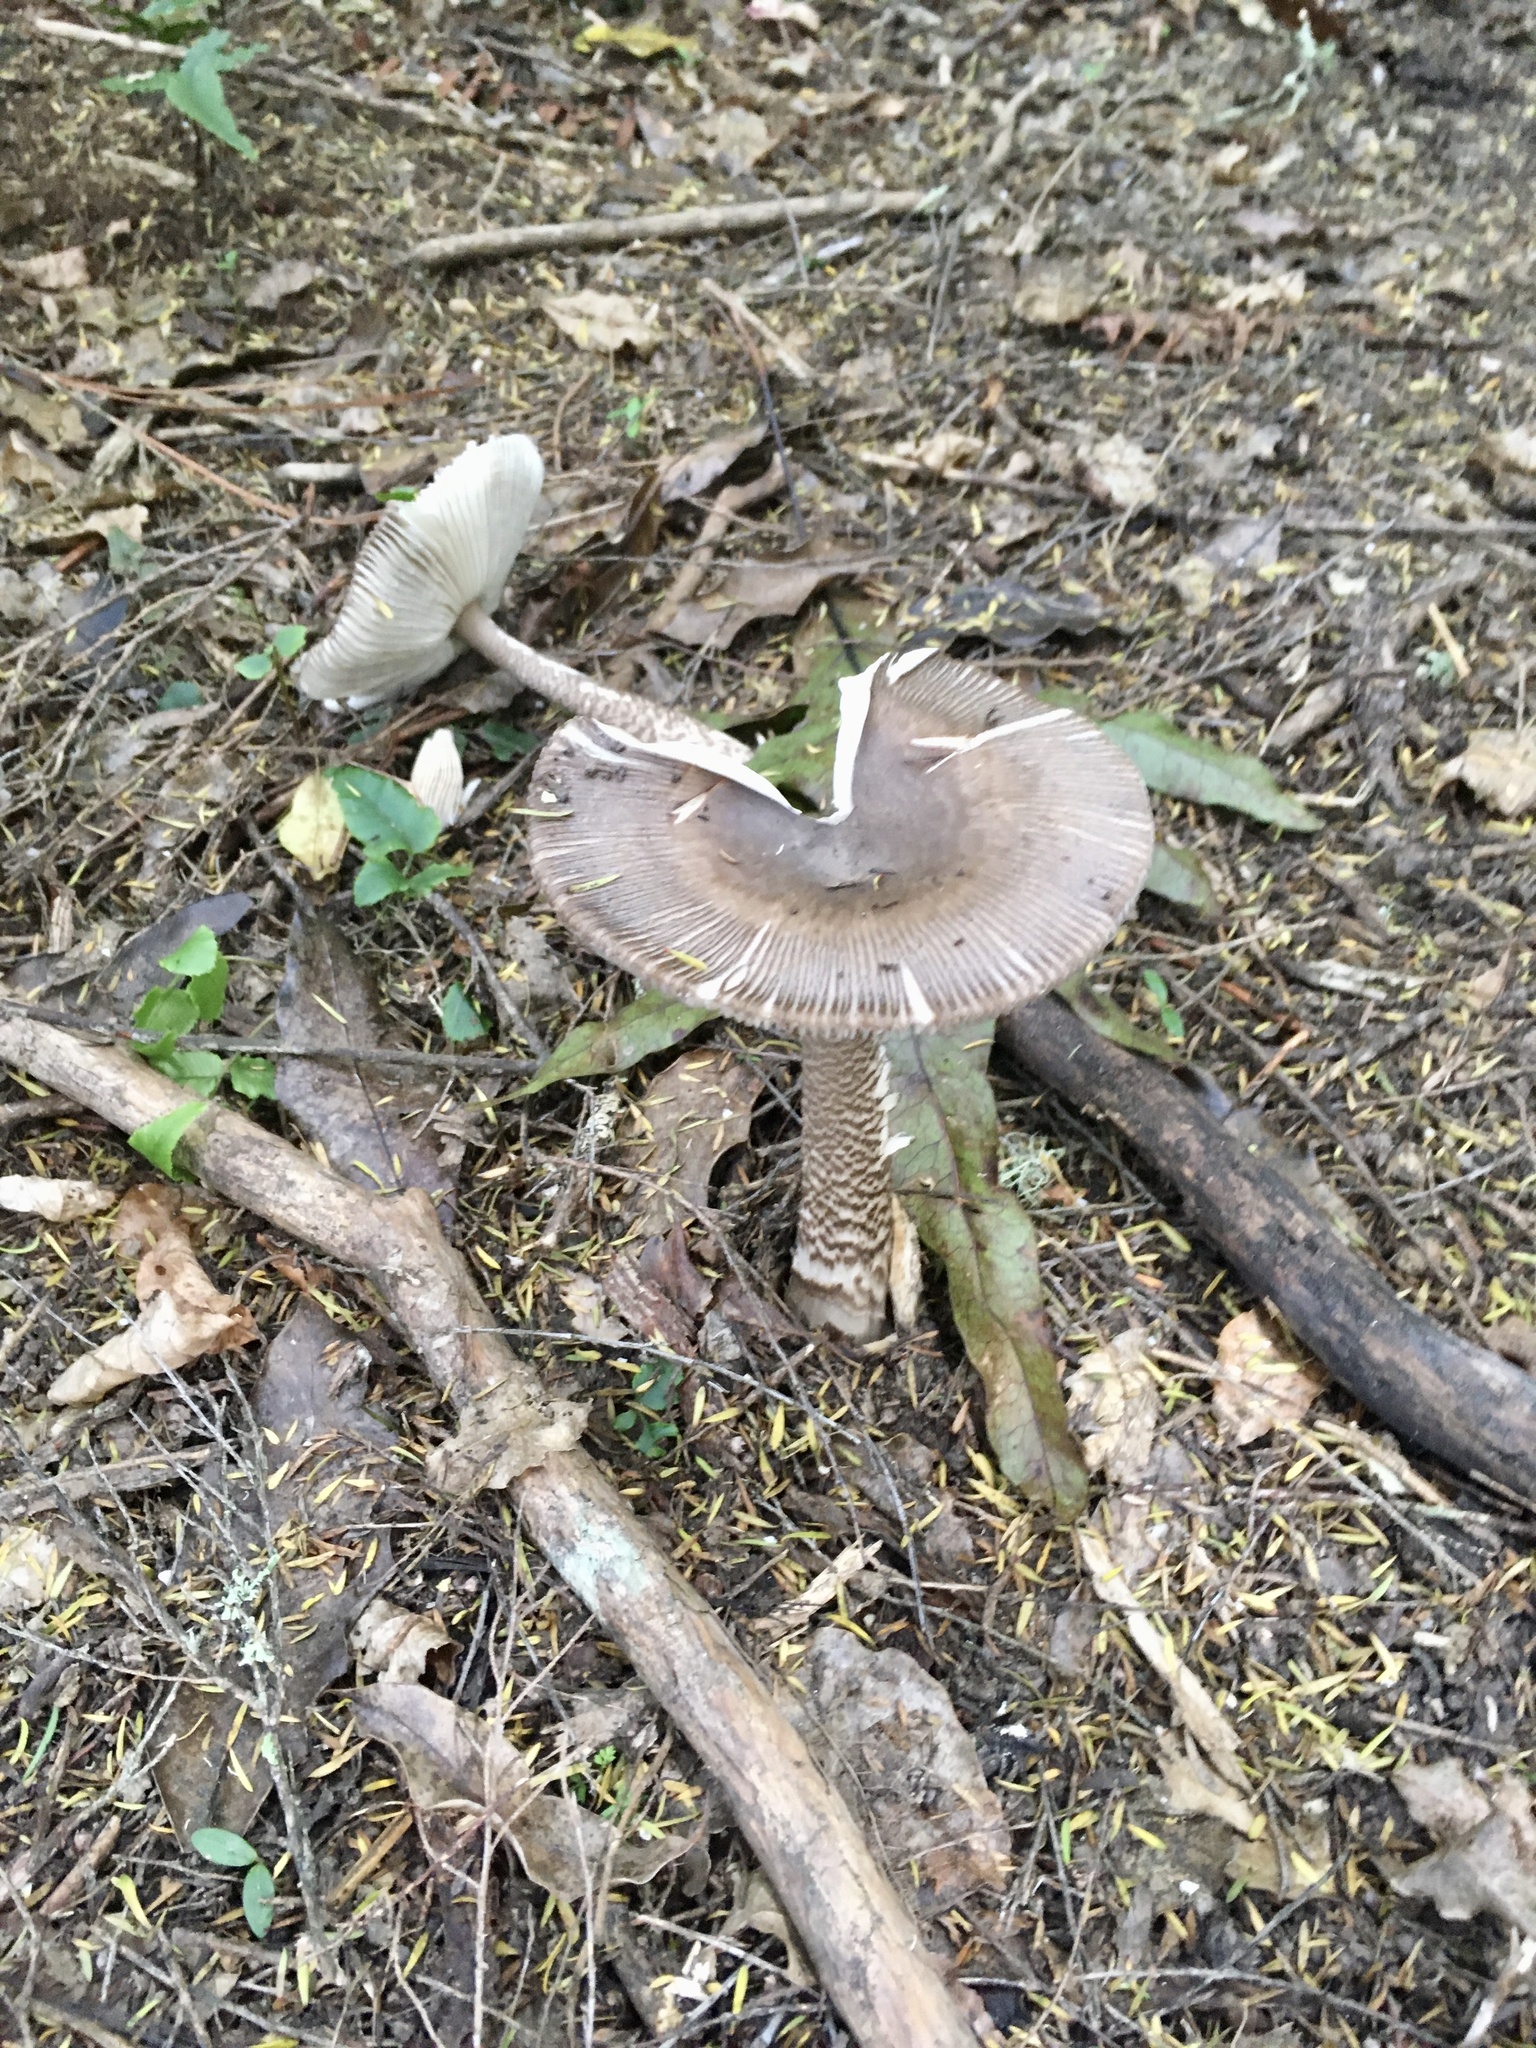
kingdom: Fungi
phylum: Basidiomycota
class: Agaricomycetes
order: Agaricales
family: Amanitaceae
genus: Amanita
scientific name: Amanita pekeoides
